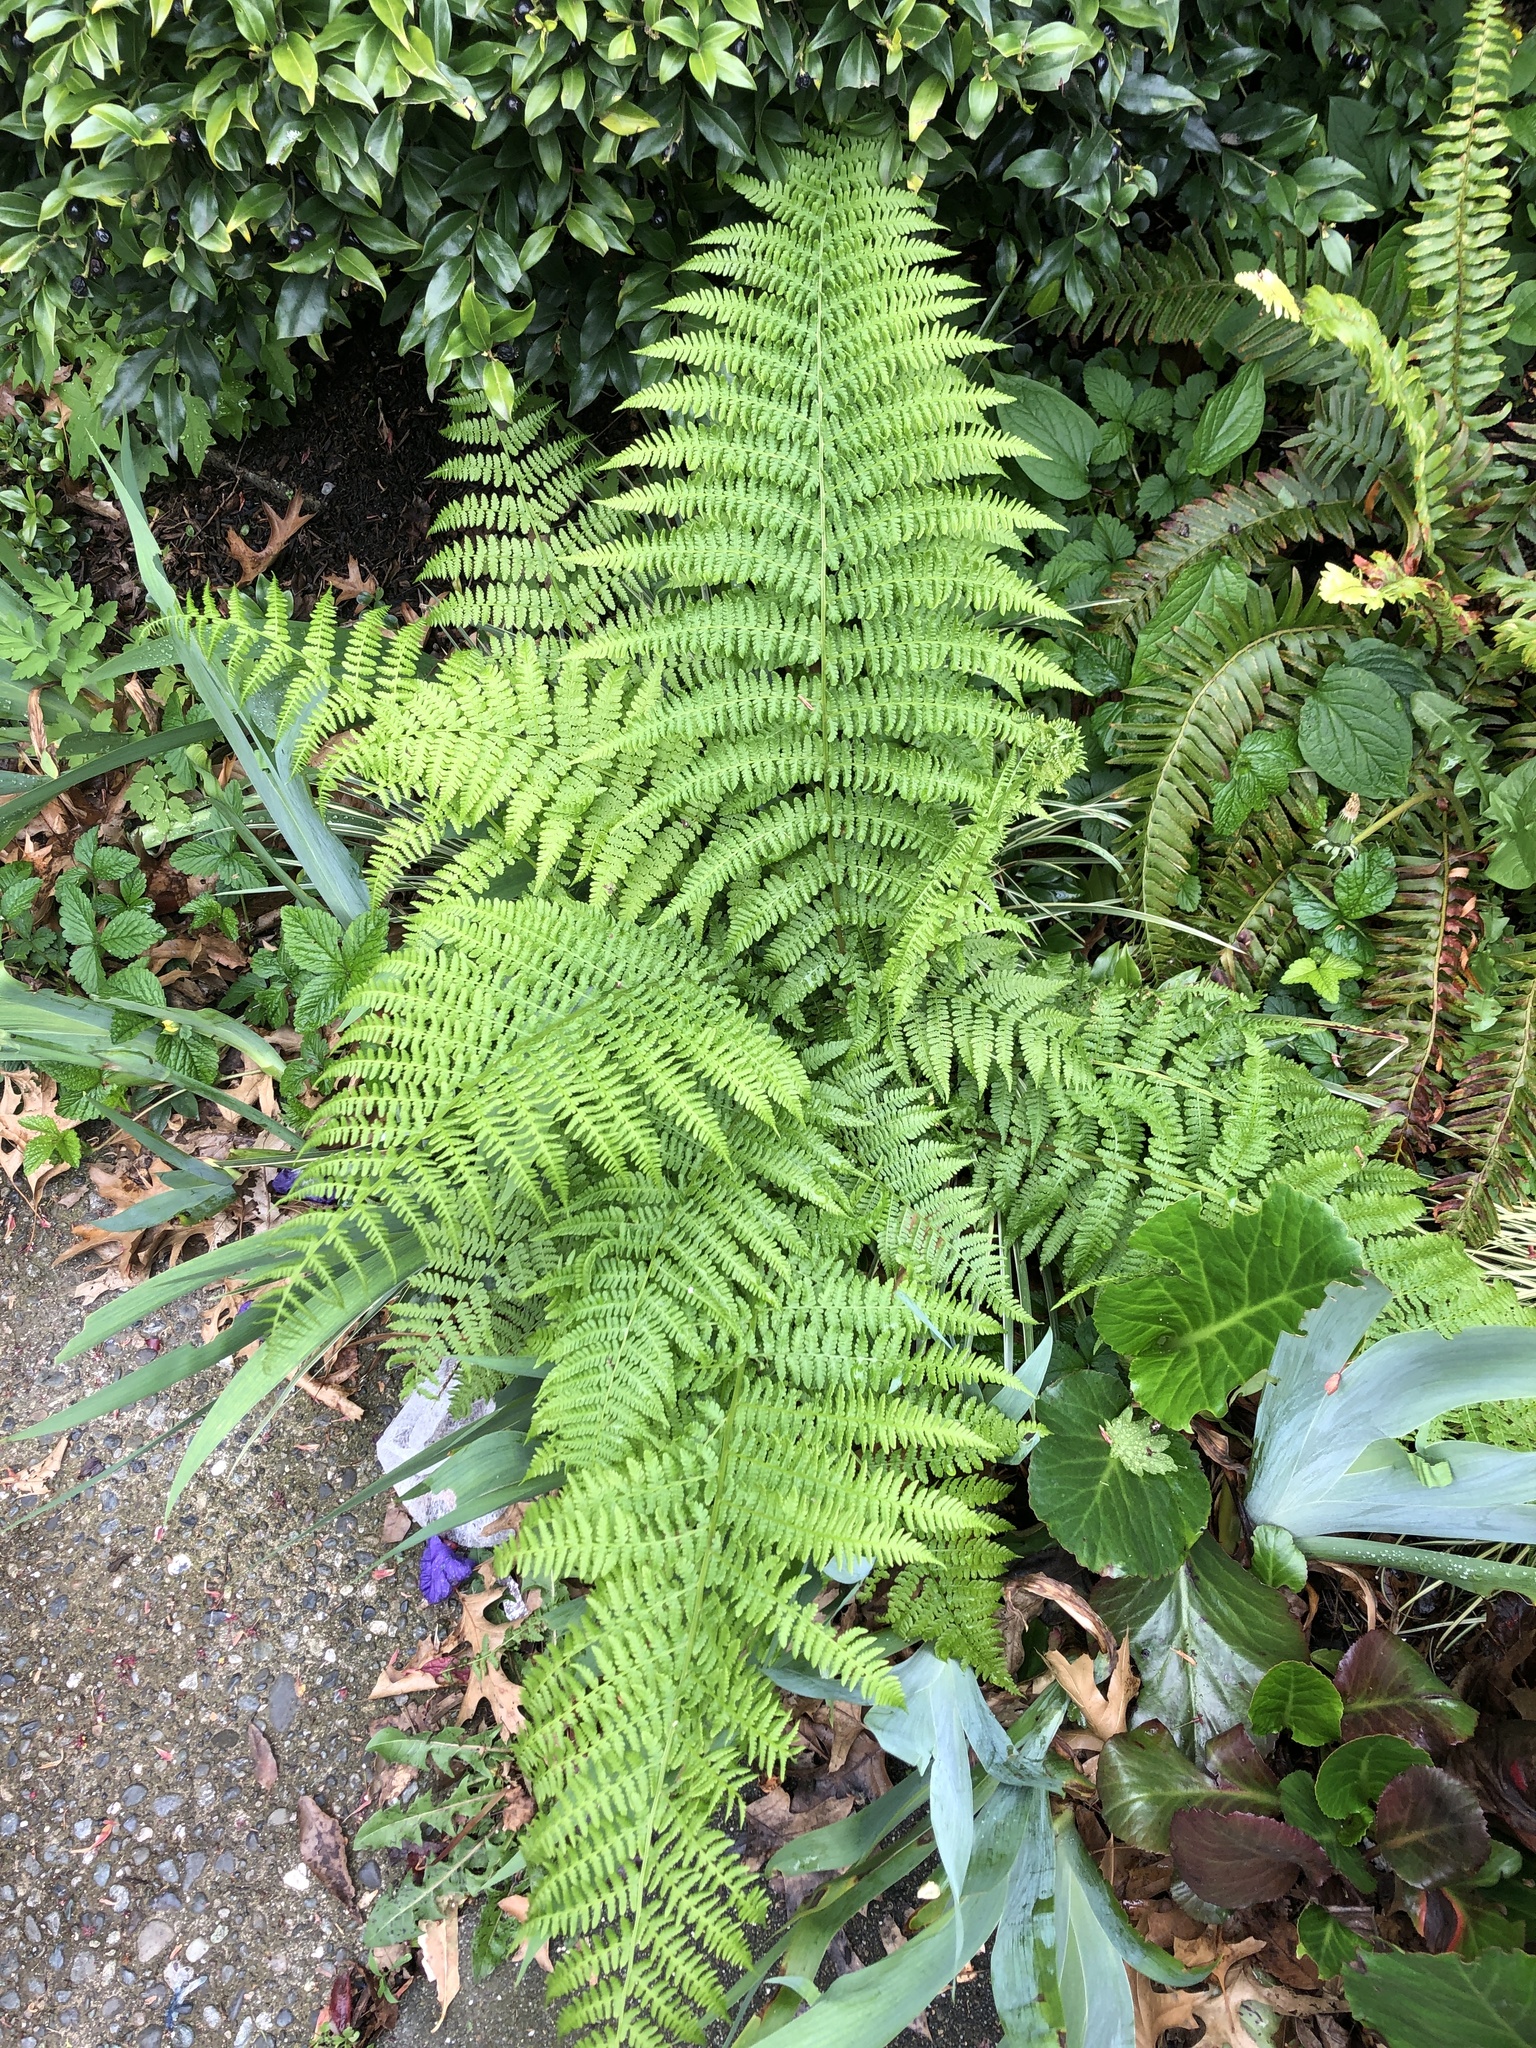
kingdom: Plantae
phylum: Tracheophyta
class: Polypodiopsida
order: Polypodiales
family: Athyriaceae
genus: Athyrium
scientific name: Athyrium cyclosorum
